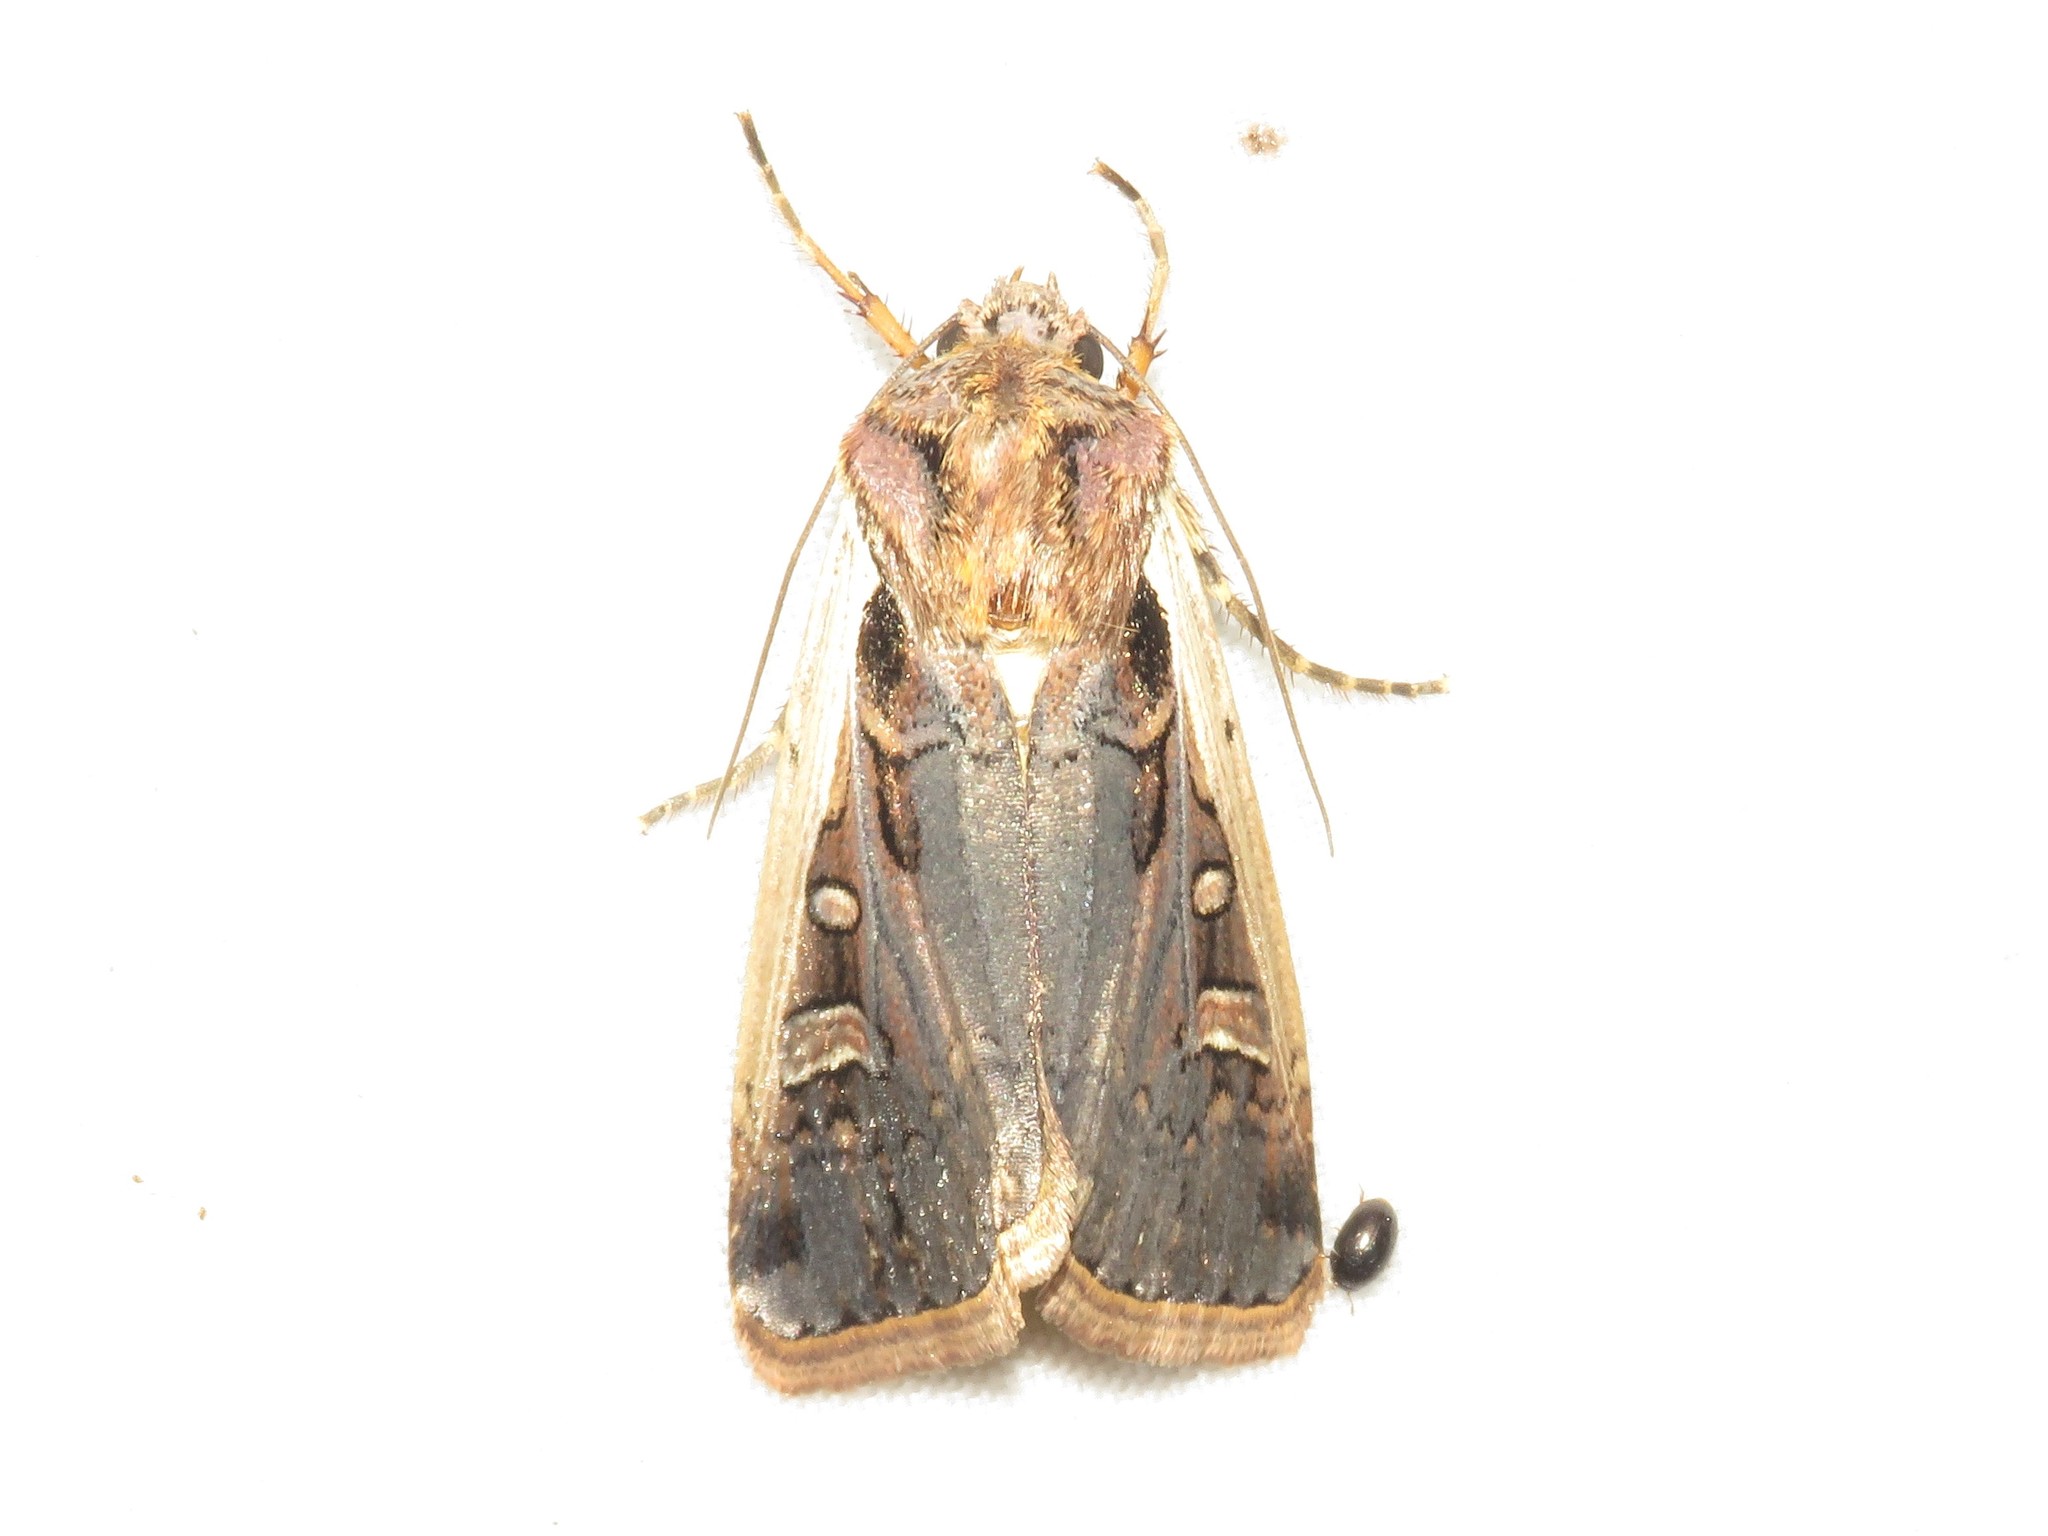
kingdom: Animalia
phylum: Arthropoda
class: Insecta
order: Lepidoptera
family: Noctuidae
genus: Striacosta
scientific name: Striacosta albicosta
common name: Western bean cutworm moth
